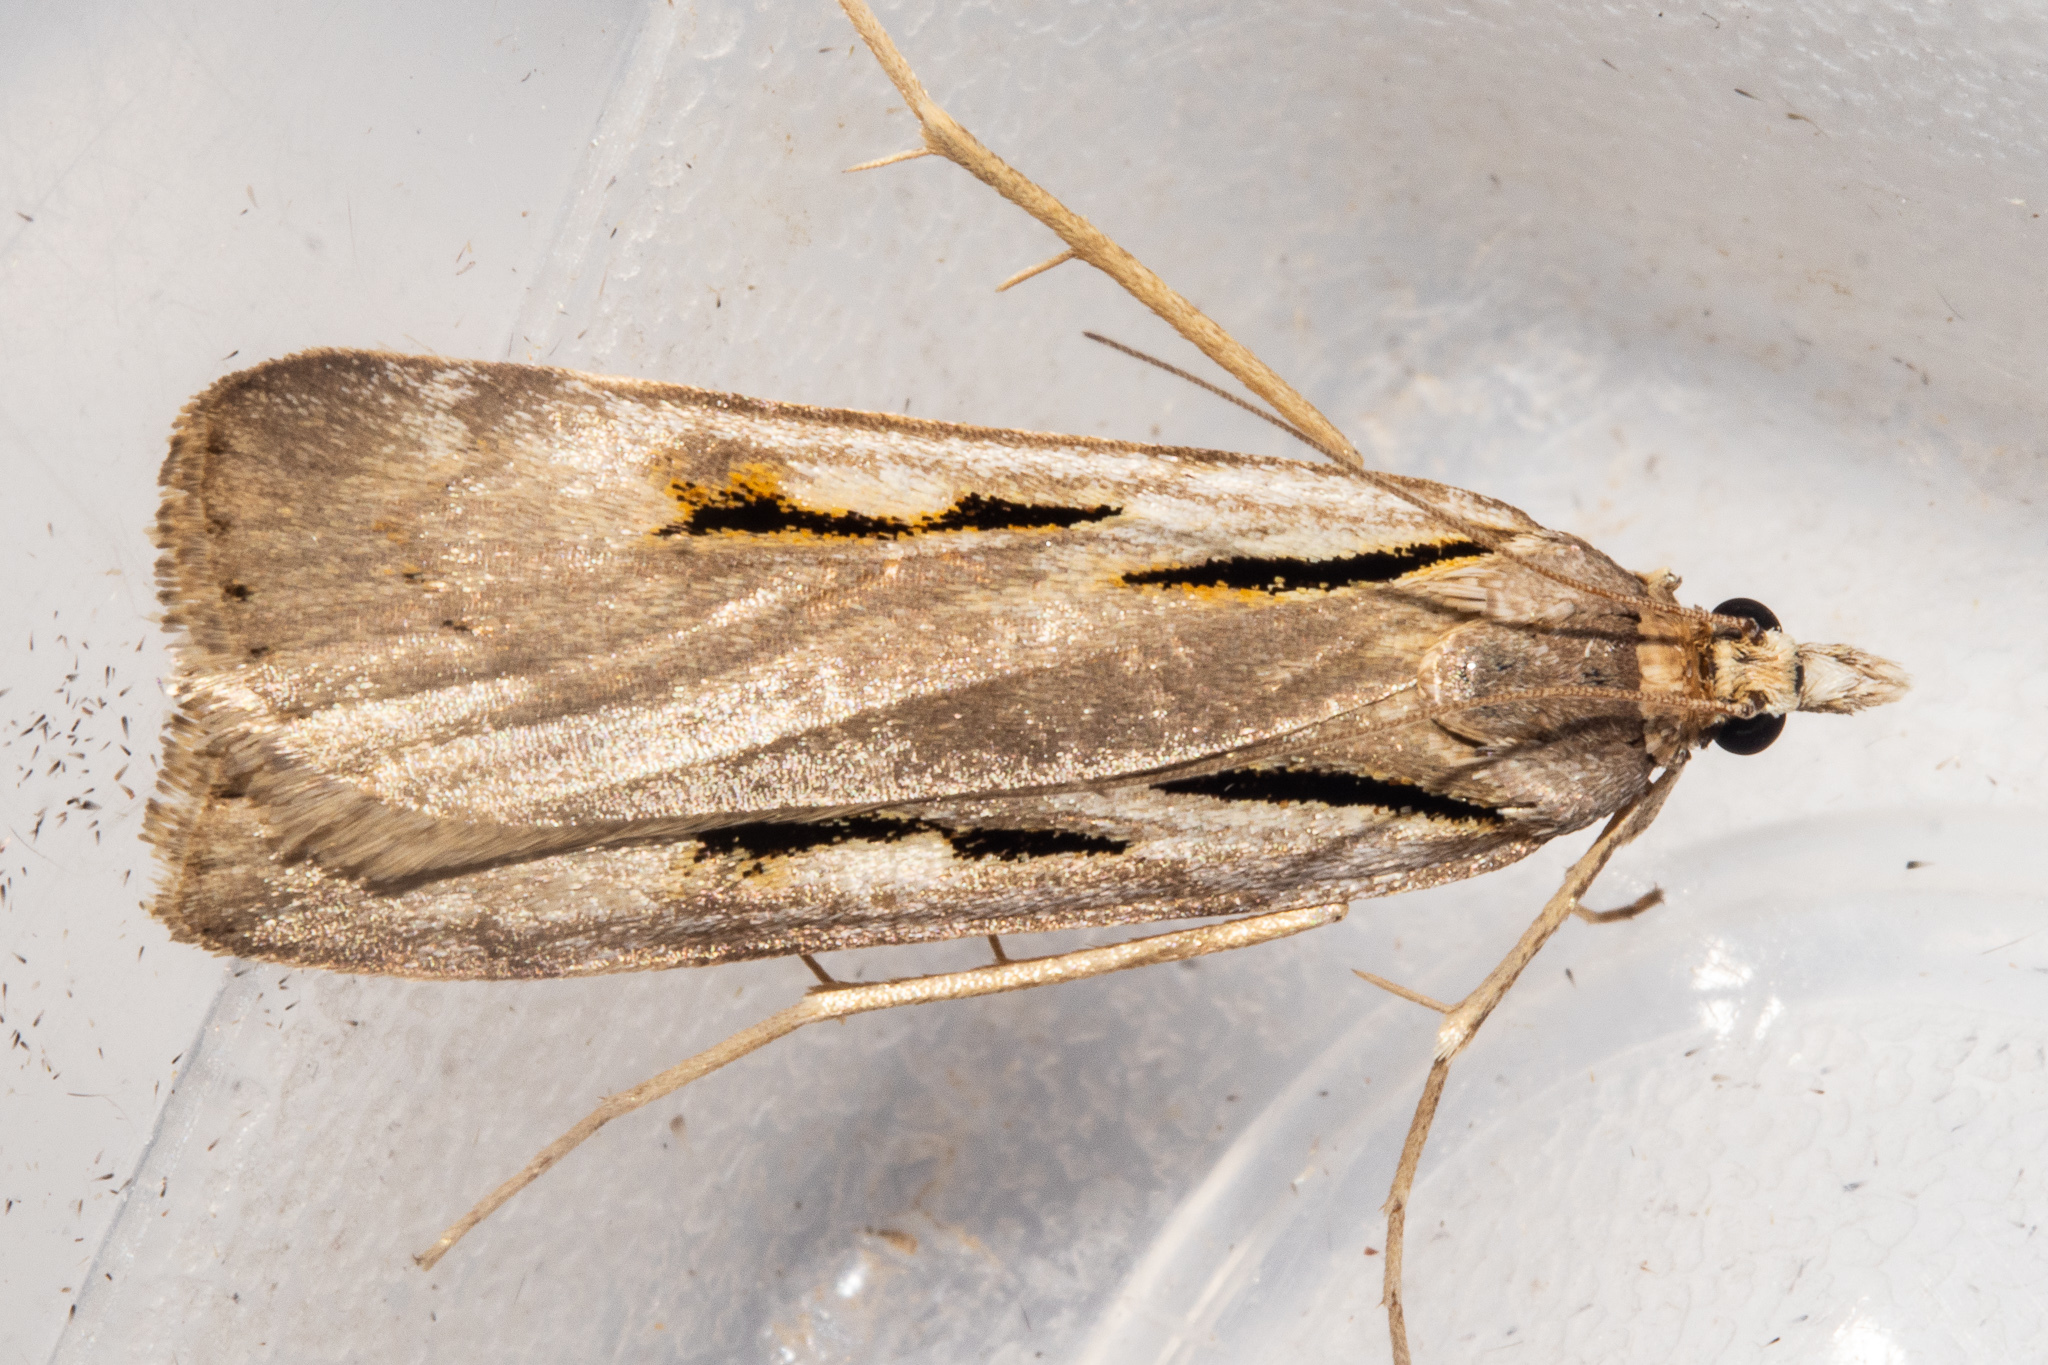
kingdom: Animalia
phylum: Arthropoda
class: Insecta
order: Lepidoptera
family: Crambidae
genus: Scoparia
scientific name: Scoparia scripta
